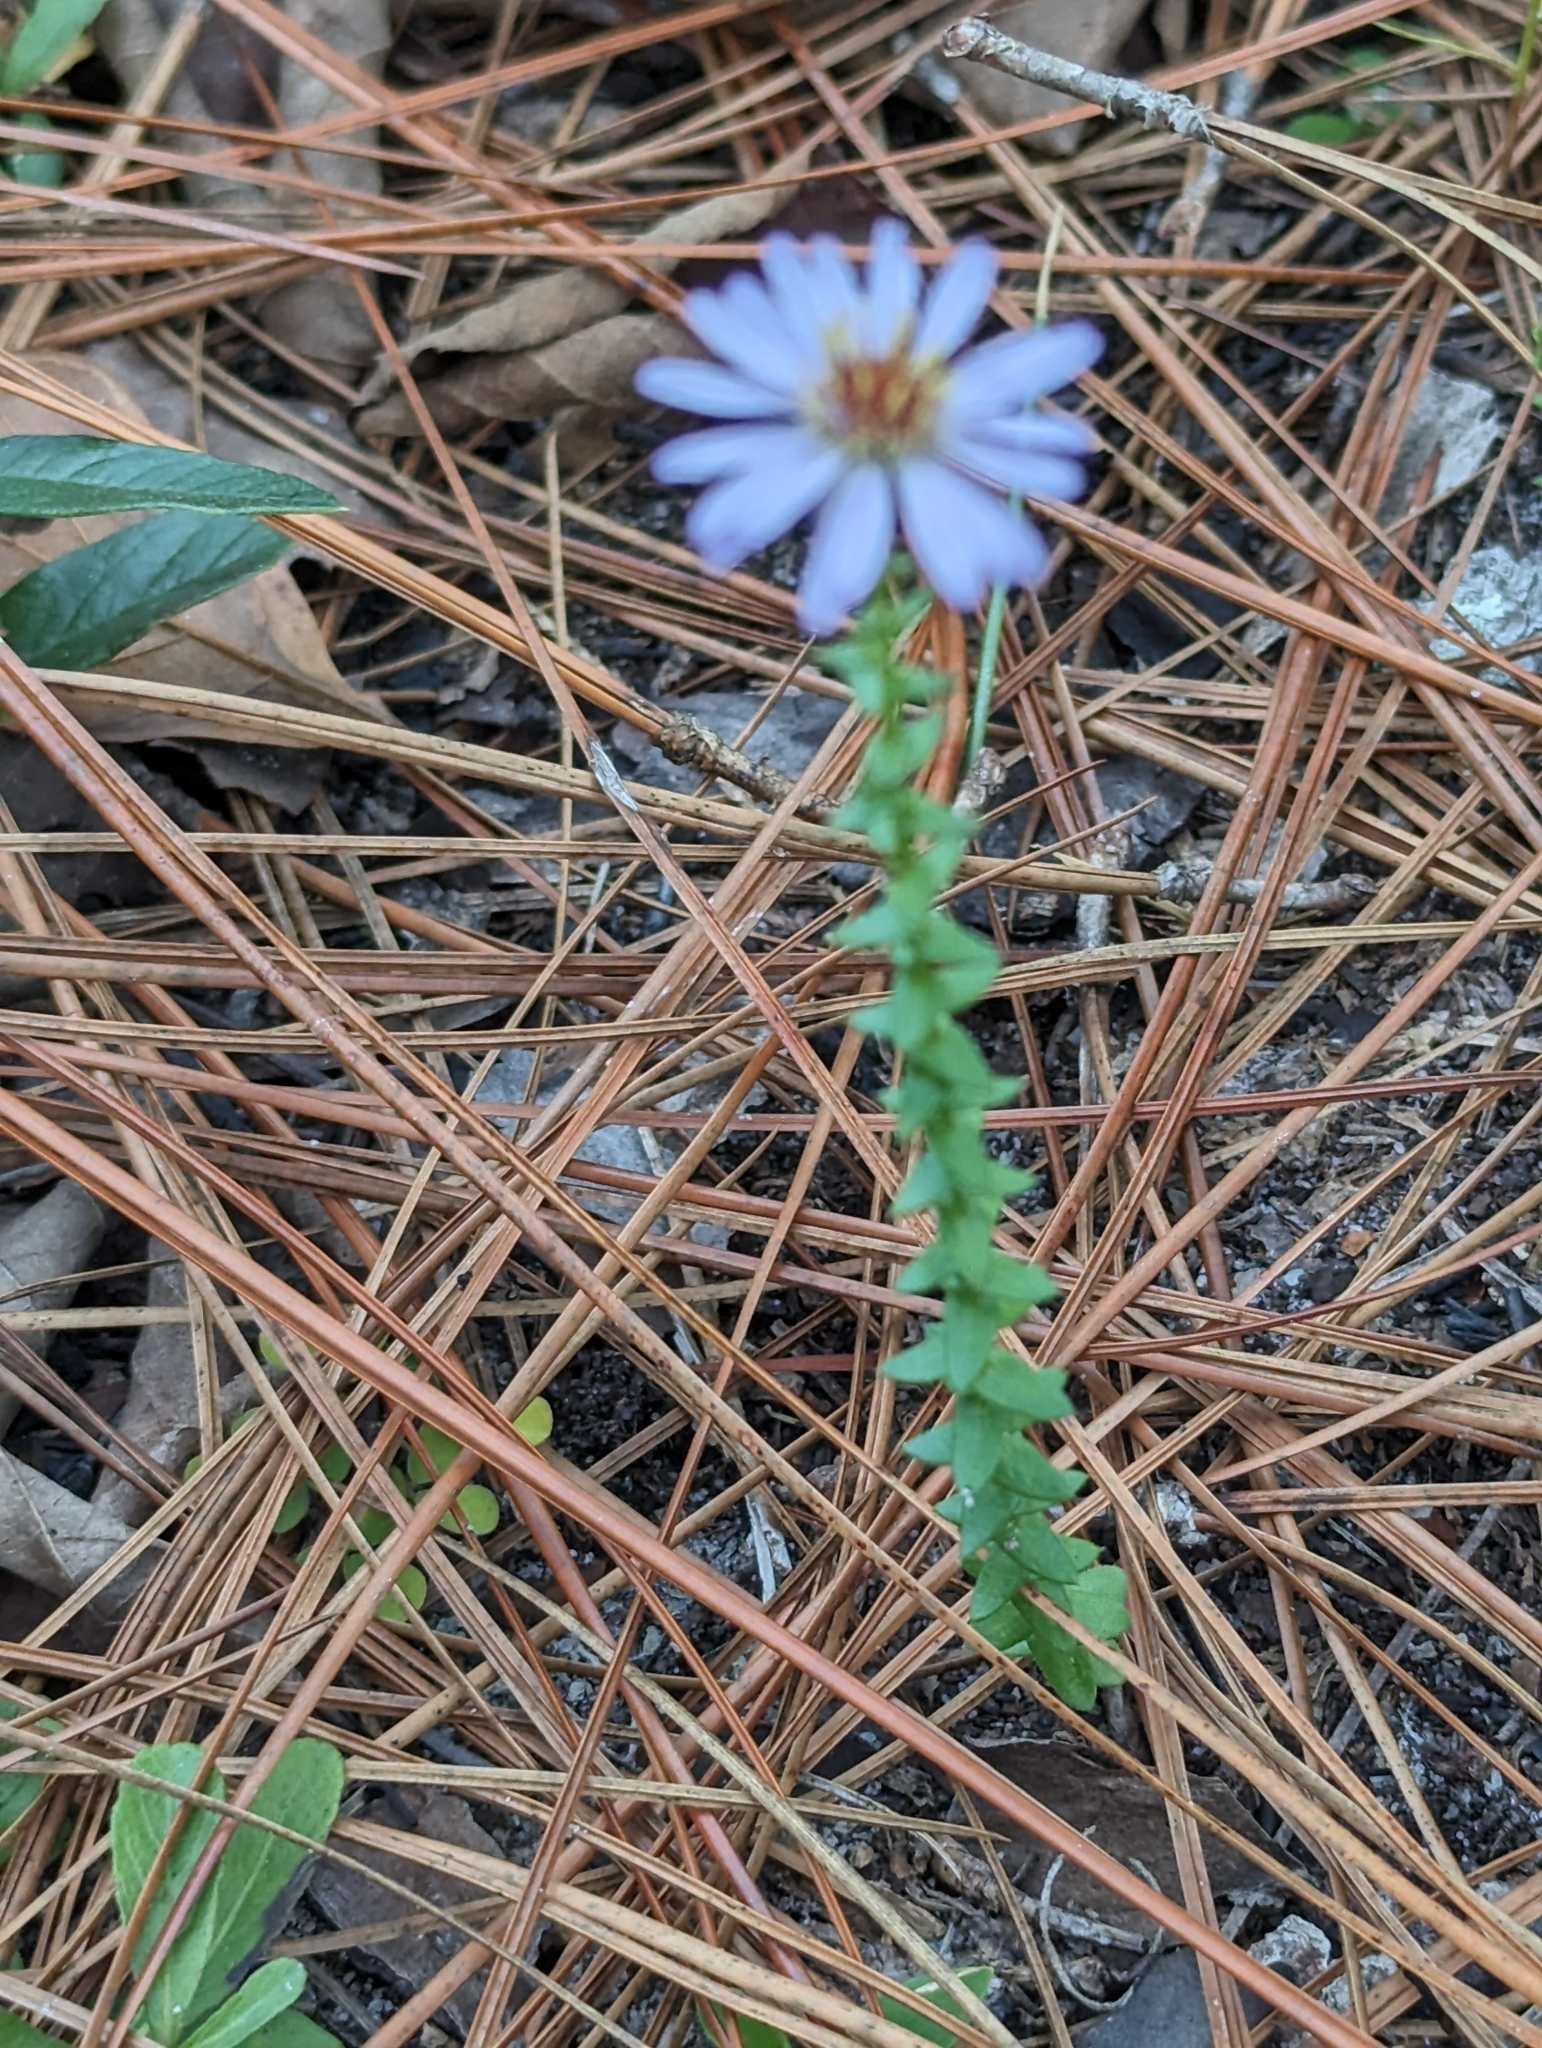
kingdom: Plantae
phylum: Tracheophyta
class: Magnoliopsida
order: Asterales
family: Asteraceae
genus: Symphyotrichum
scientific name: Symphyotrichum walteri
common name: Walter's aster
